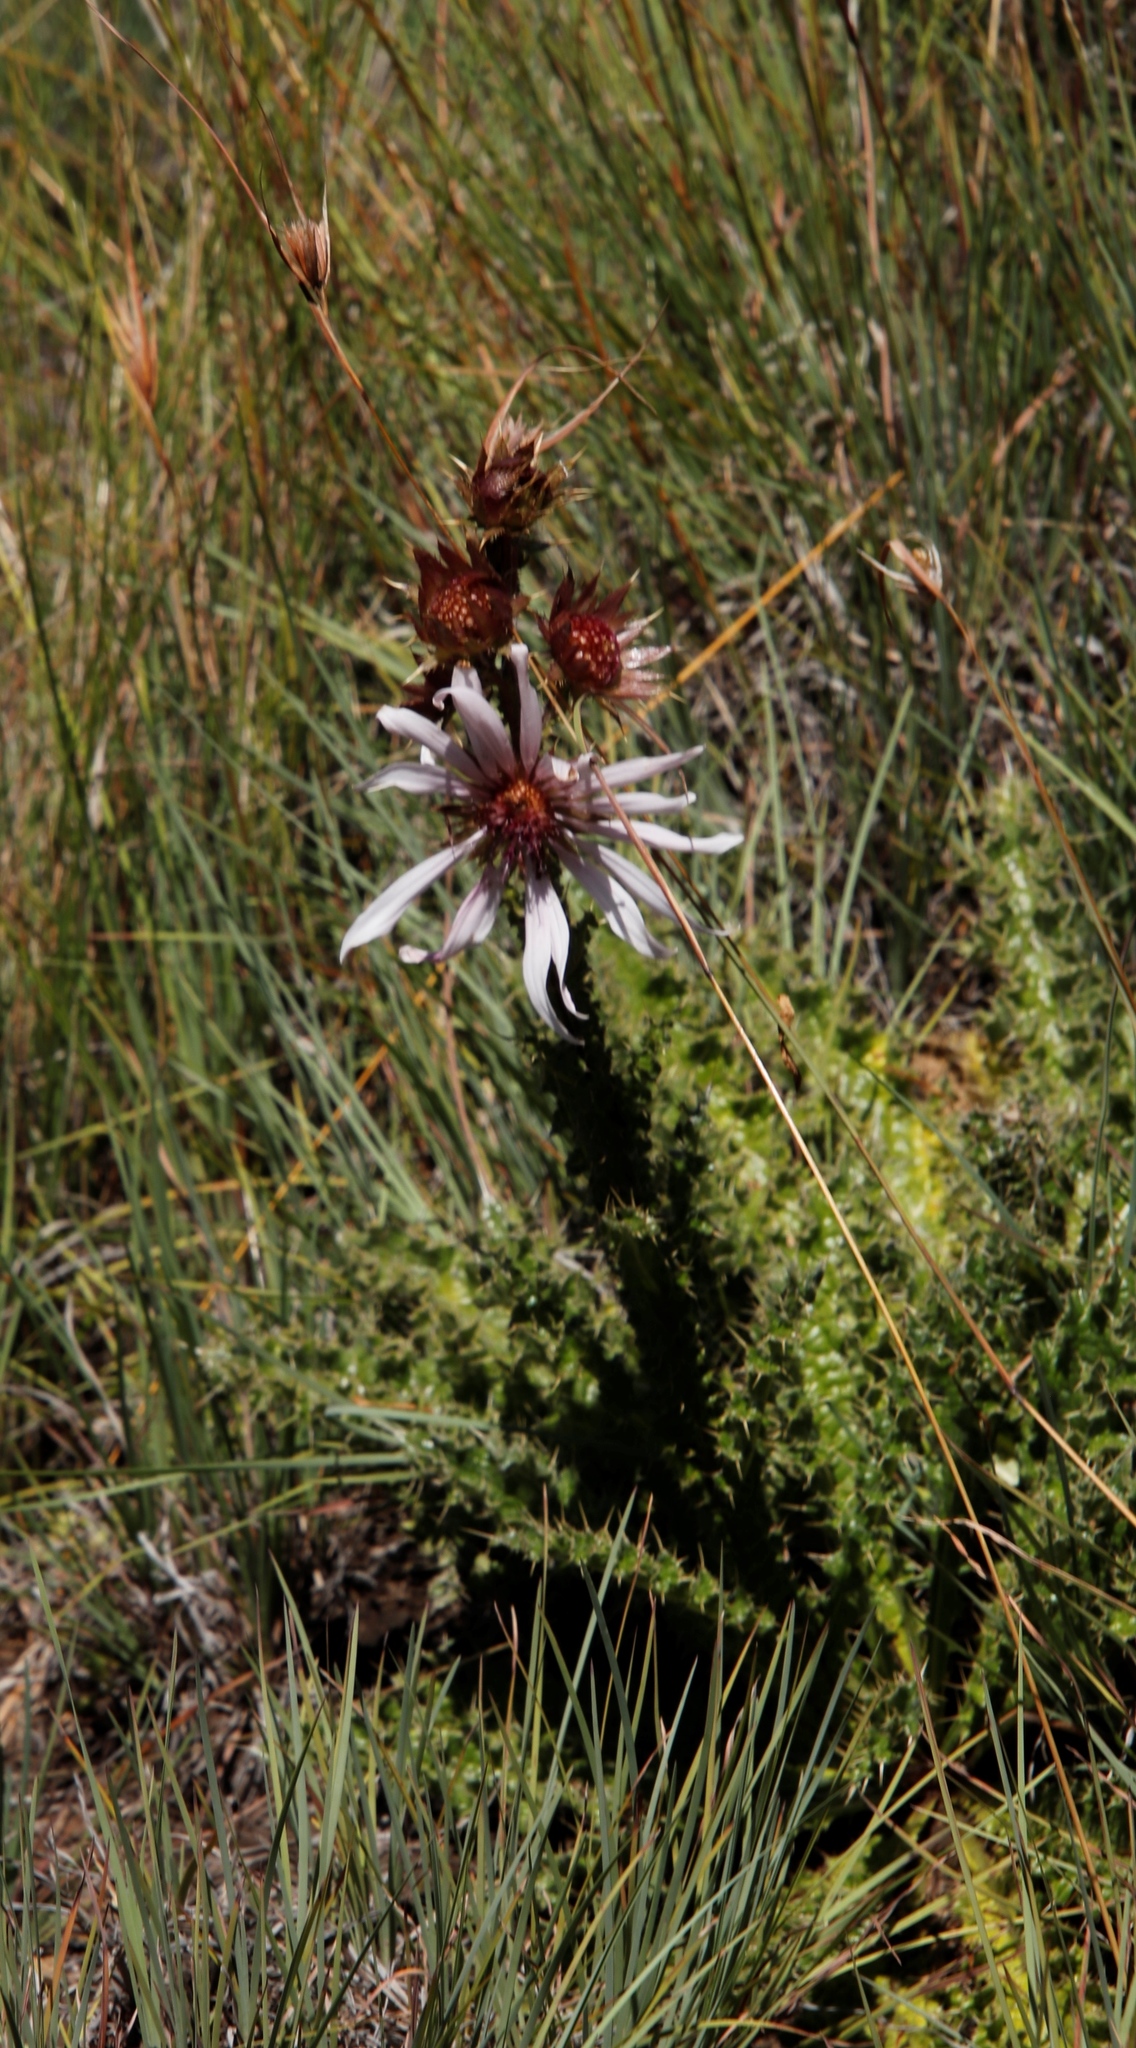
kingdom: Plantae
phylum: Tracheophyta
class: Magnoliopsida
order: Asterales
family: Asteraceae
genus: Berkheya
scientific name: Berkheya purpurea
